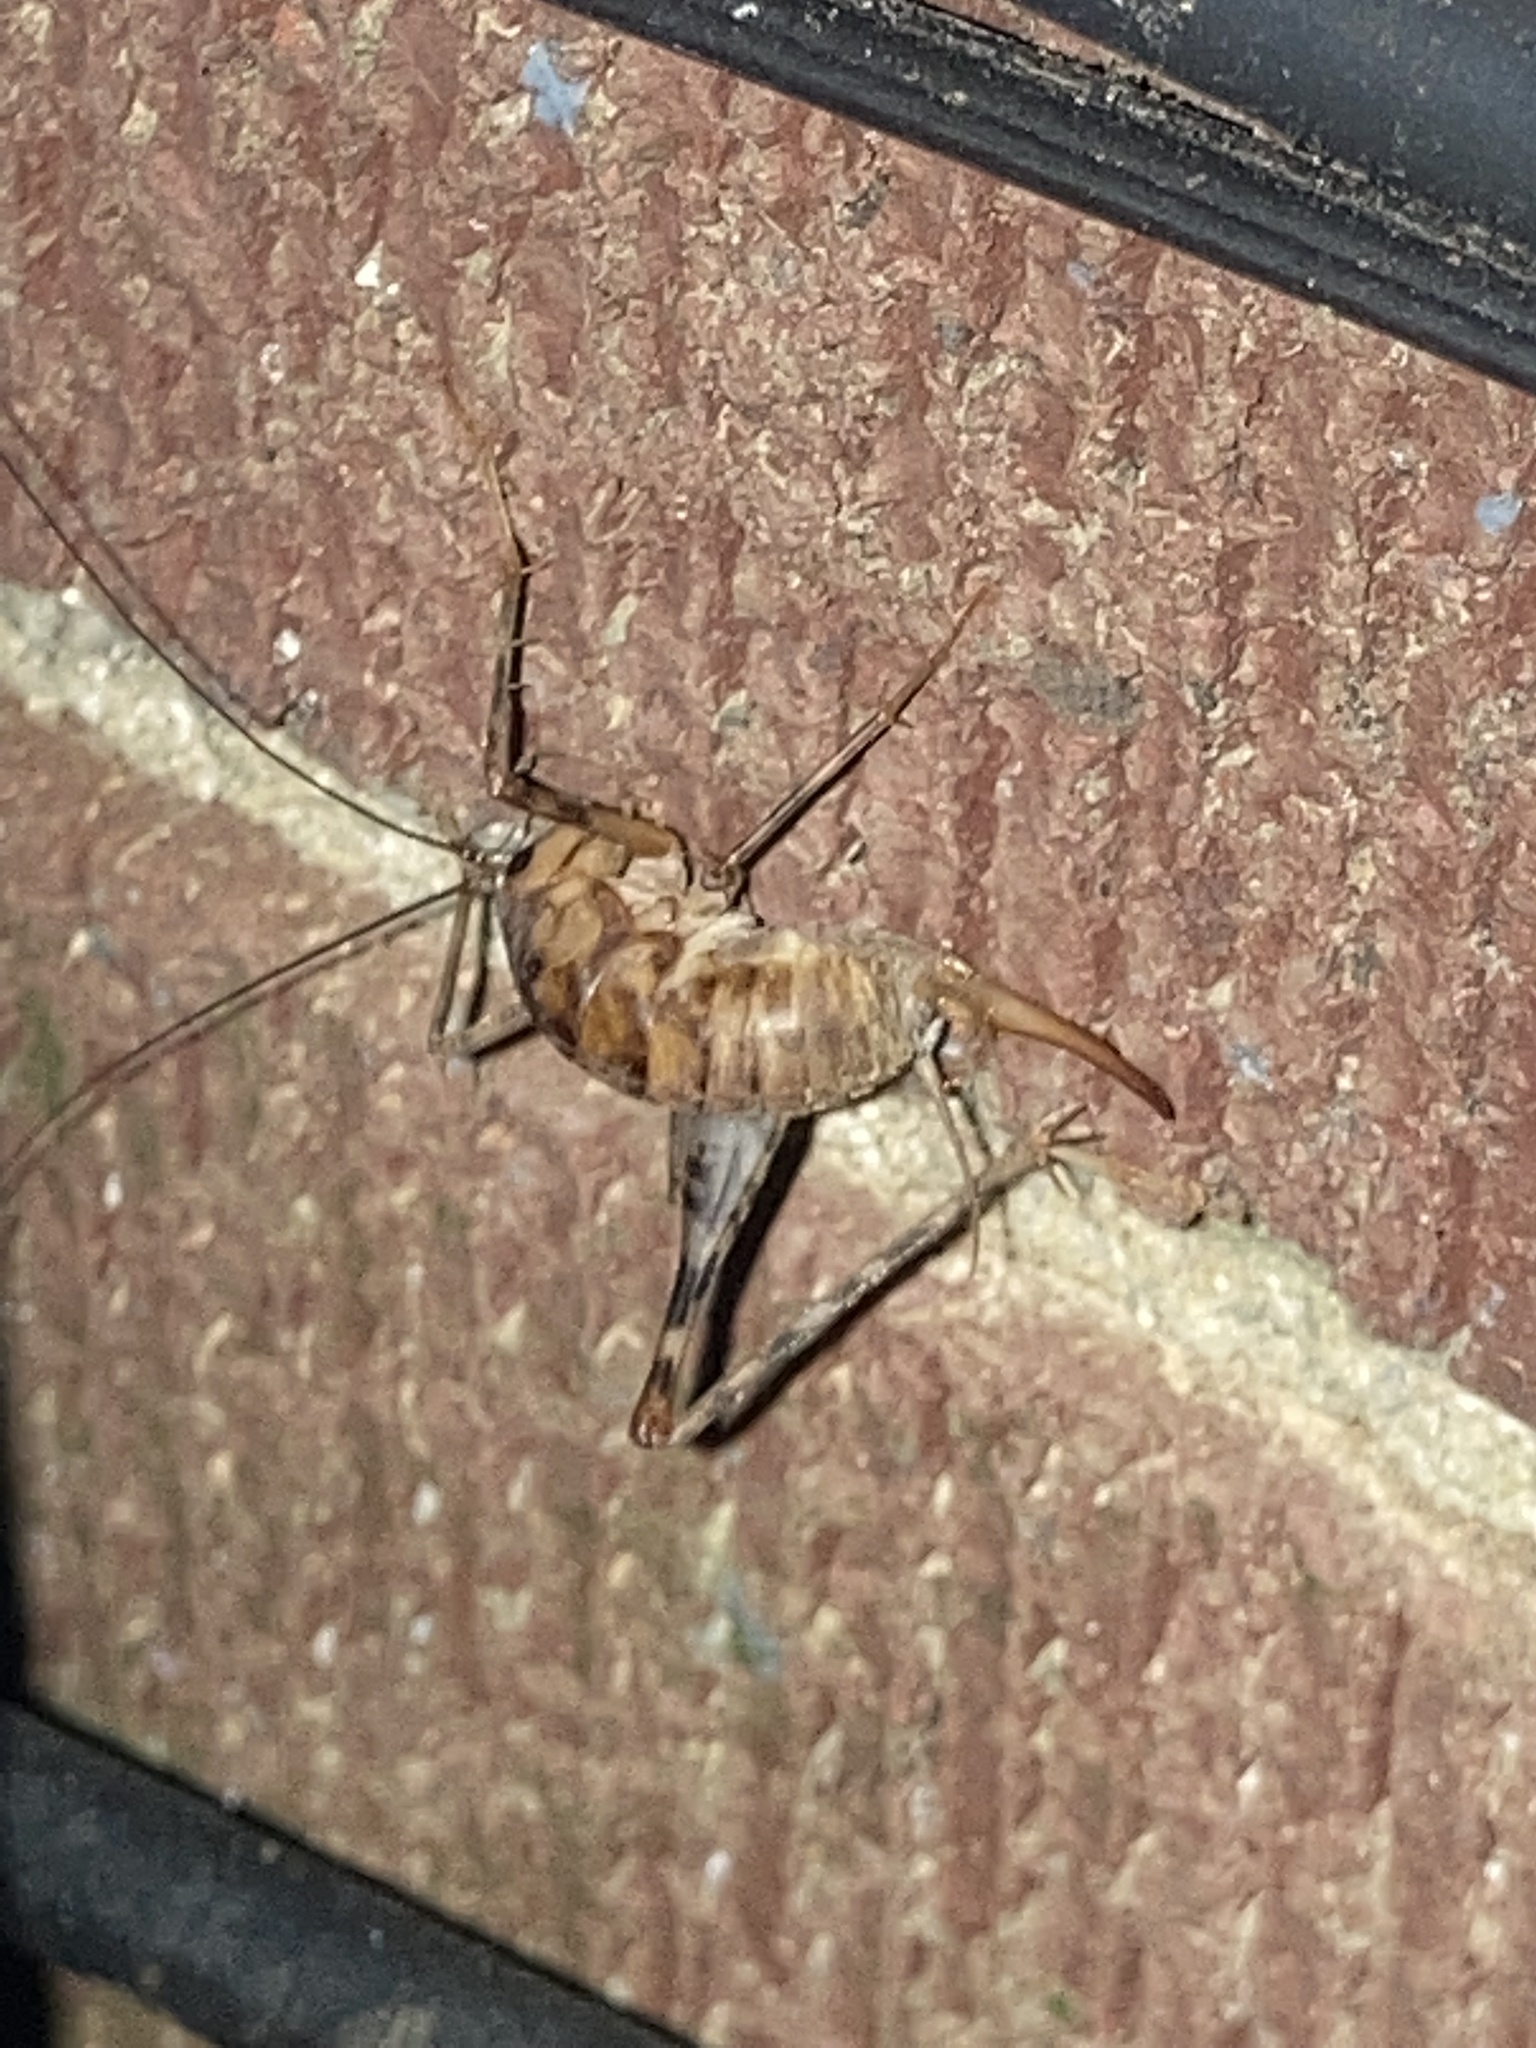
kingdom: Animalia
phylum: Arthropoda
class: Insecta
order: Orthoptera
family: Rhaphidophoridae
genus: Tachycines
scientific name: Tachycines asynamorus
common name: Greenhouse camel cricket
